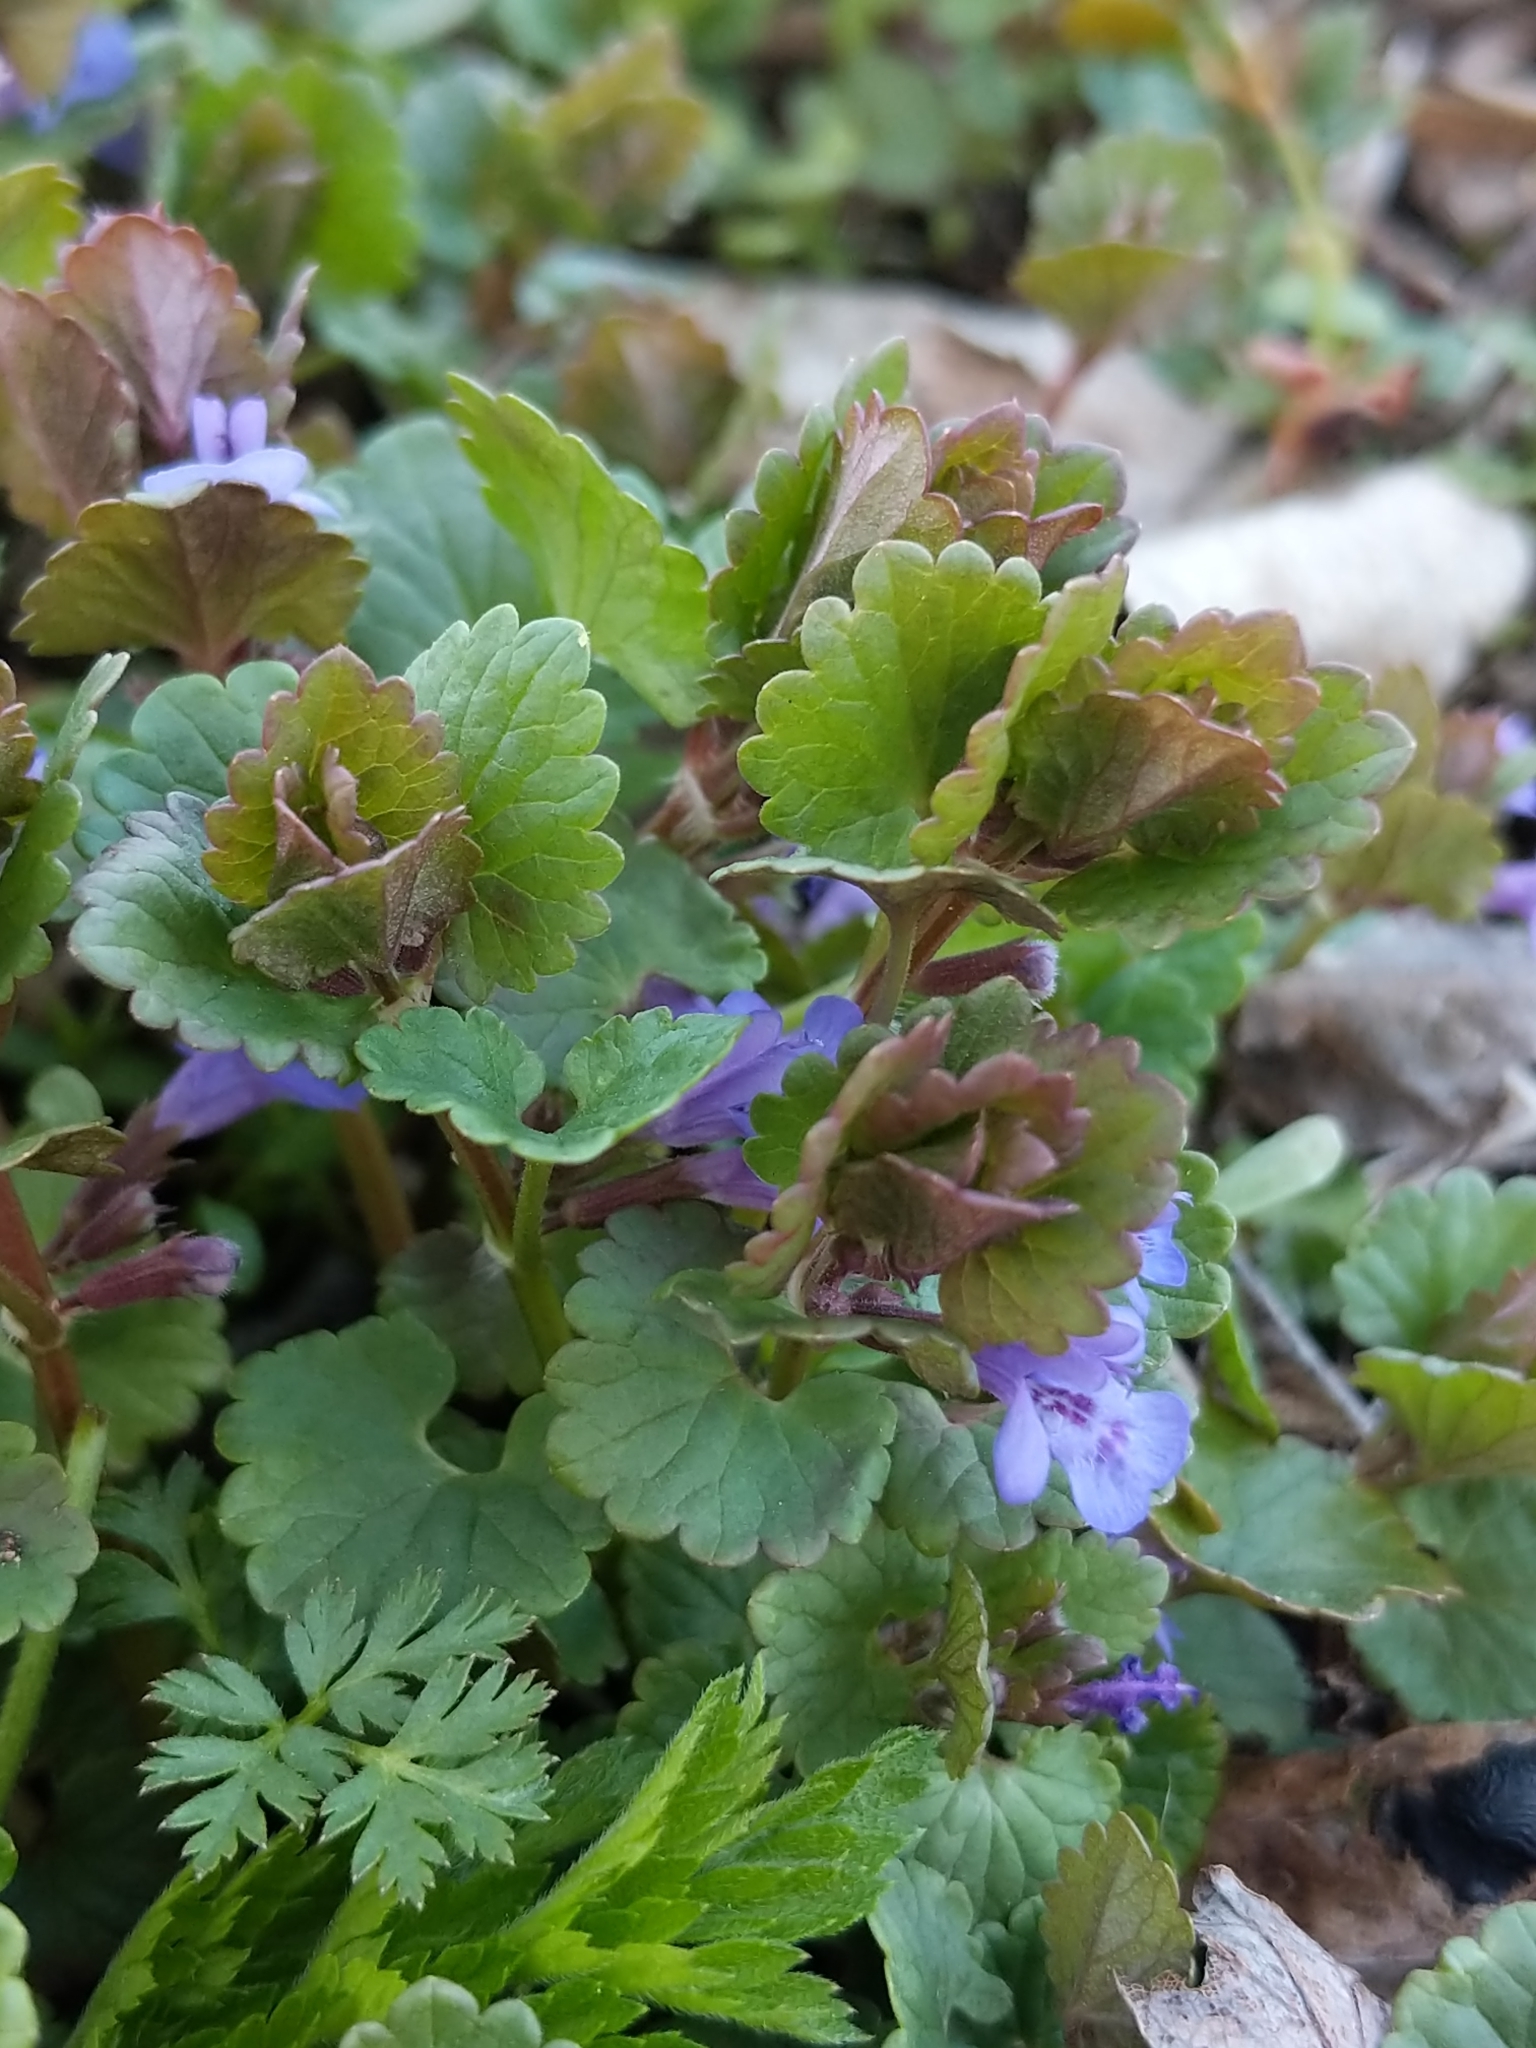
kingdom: Plantae
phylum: Tracheophyta
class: Magnoliopsida
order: Lamiales
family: Lamiaceae
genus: Glechoma
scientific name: Glechoma hederacea
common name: Ground ivy
